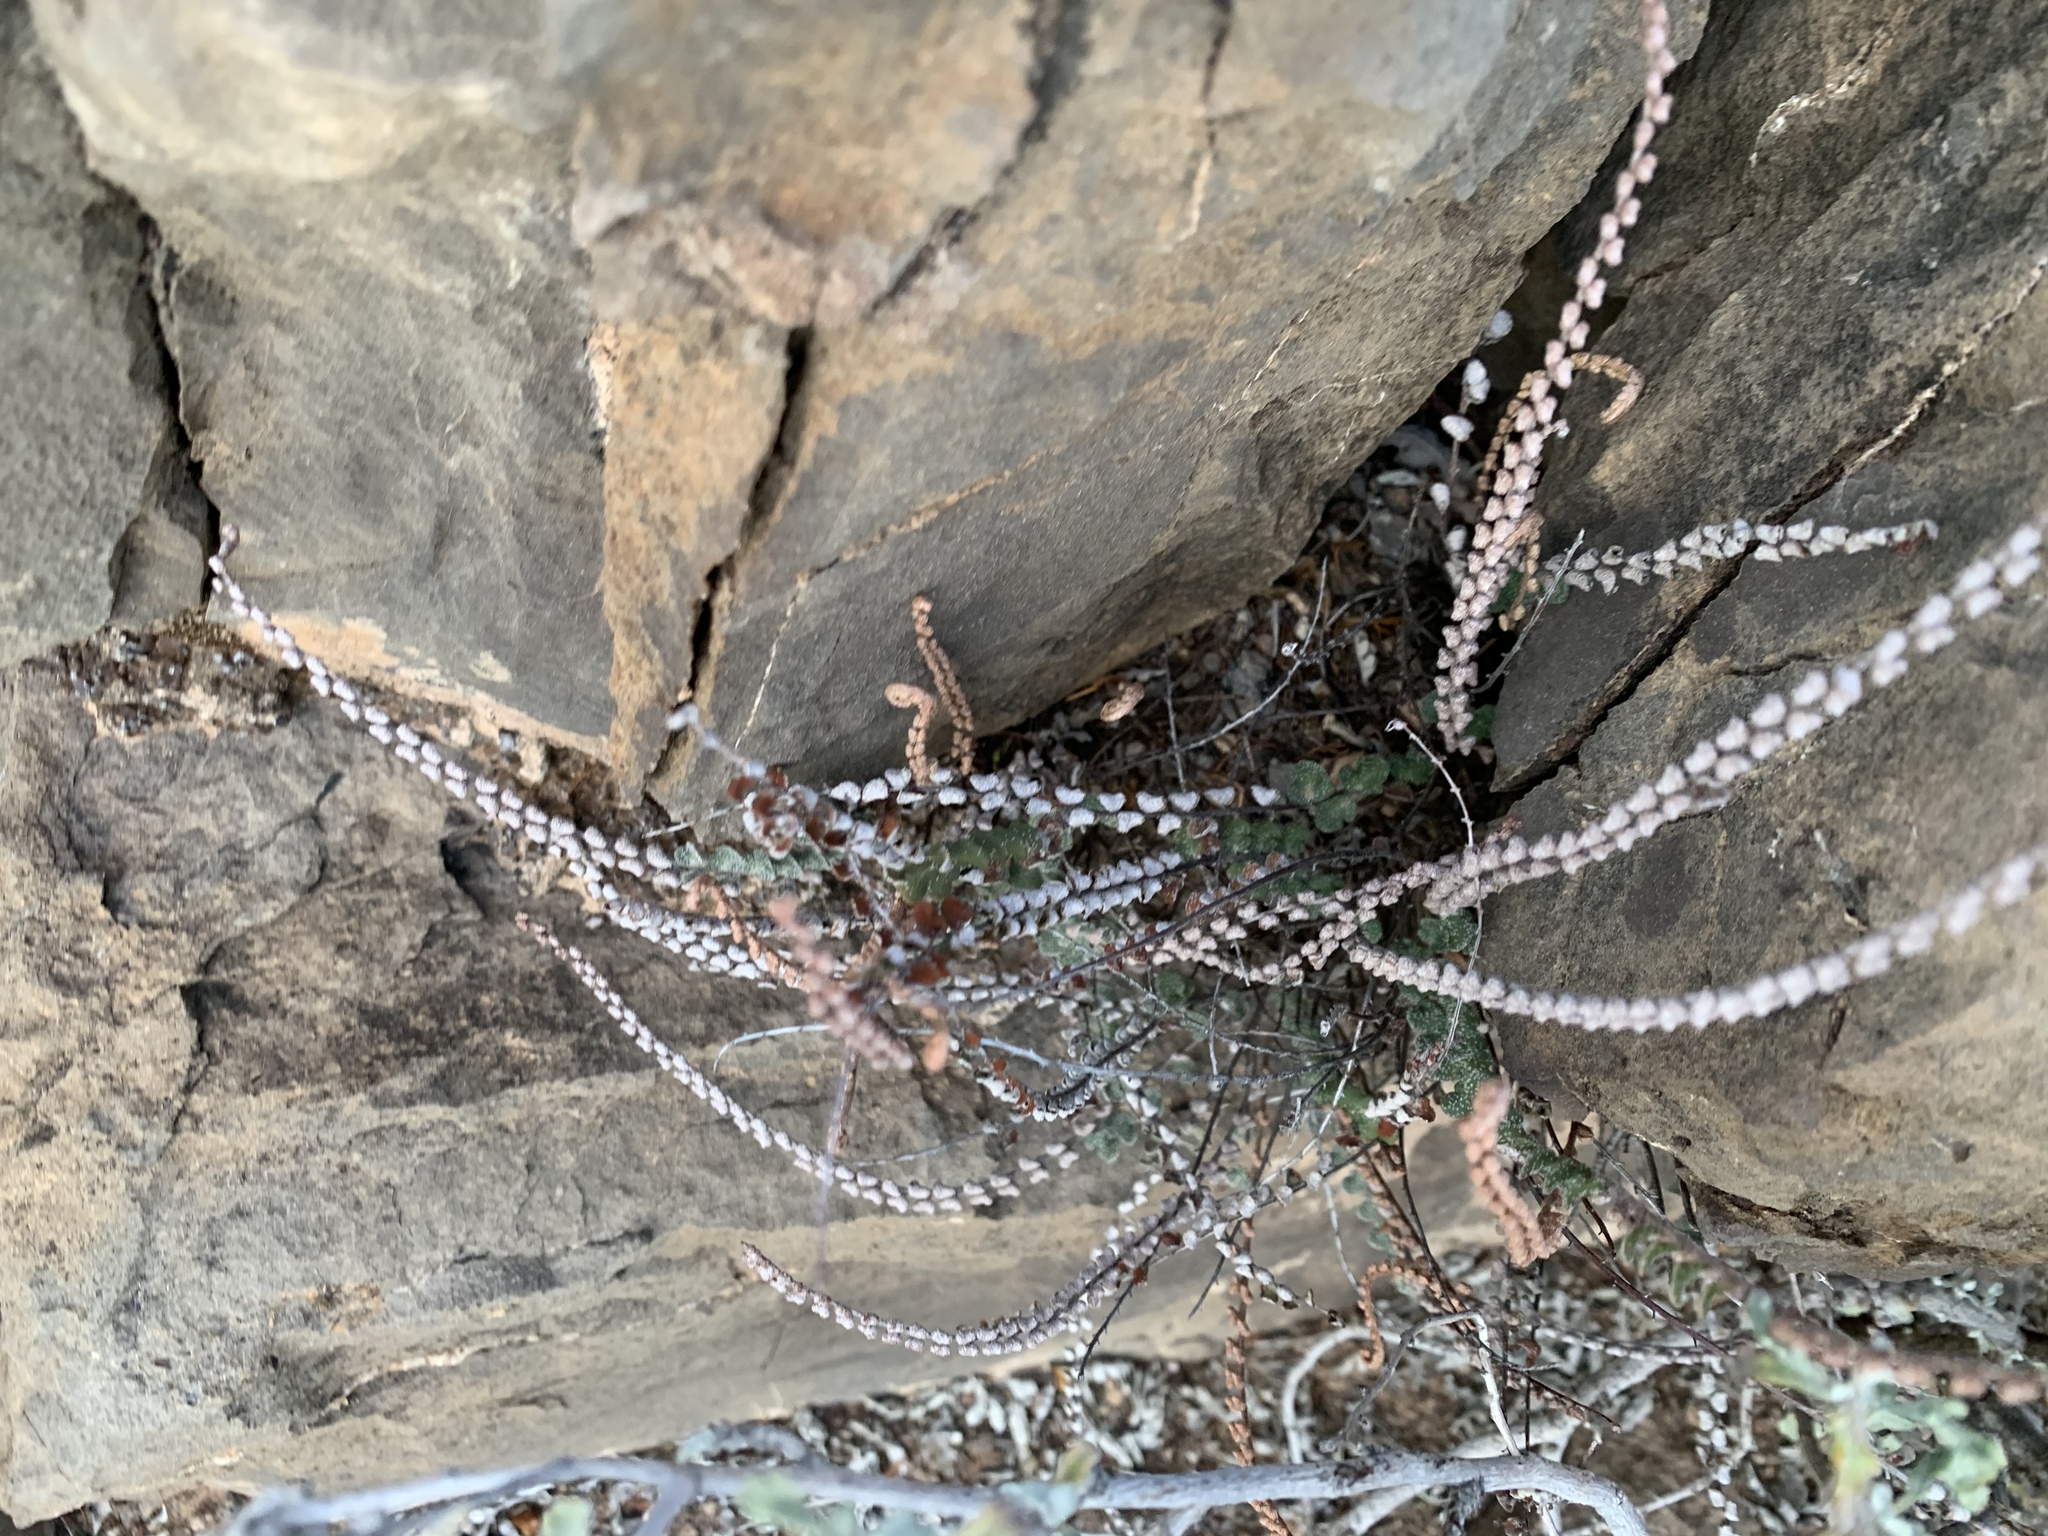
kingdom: Plantae
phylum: Tracheophyta
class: Polypodiopsida
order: Polypodiales
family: Pteridaceae
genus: Astrolepis
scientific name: Astrolepis cochisensis
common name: Scaly cloak fern
